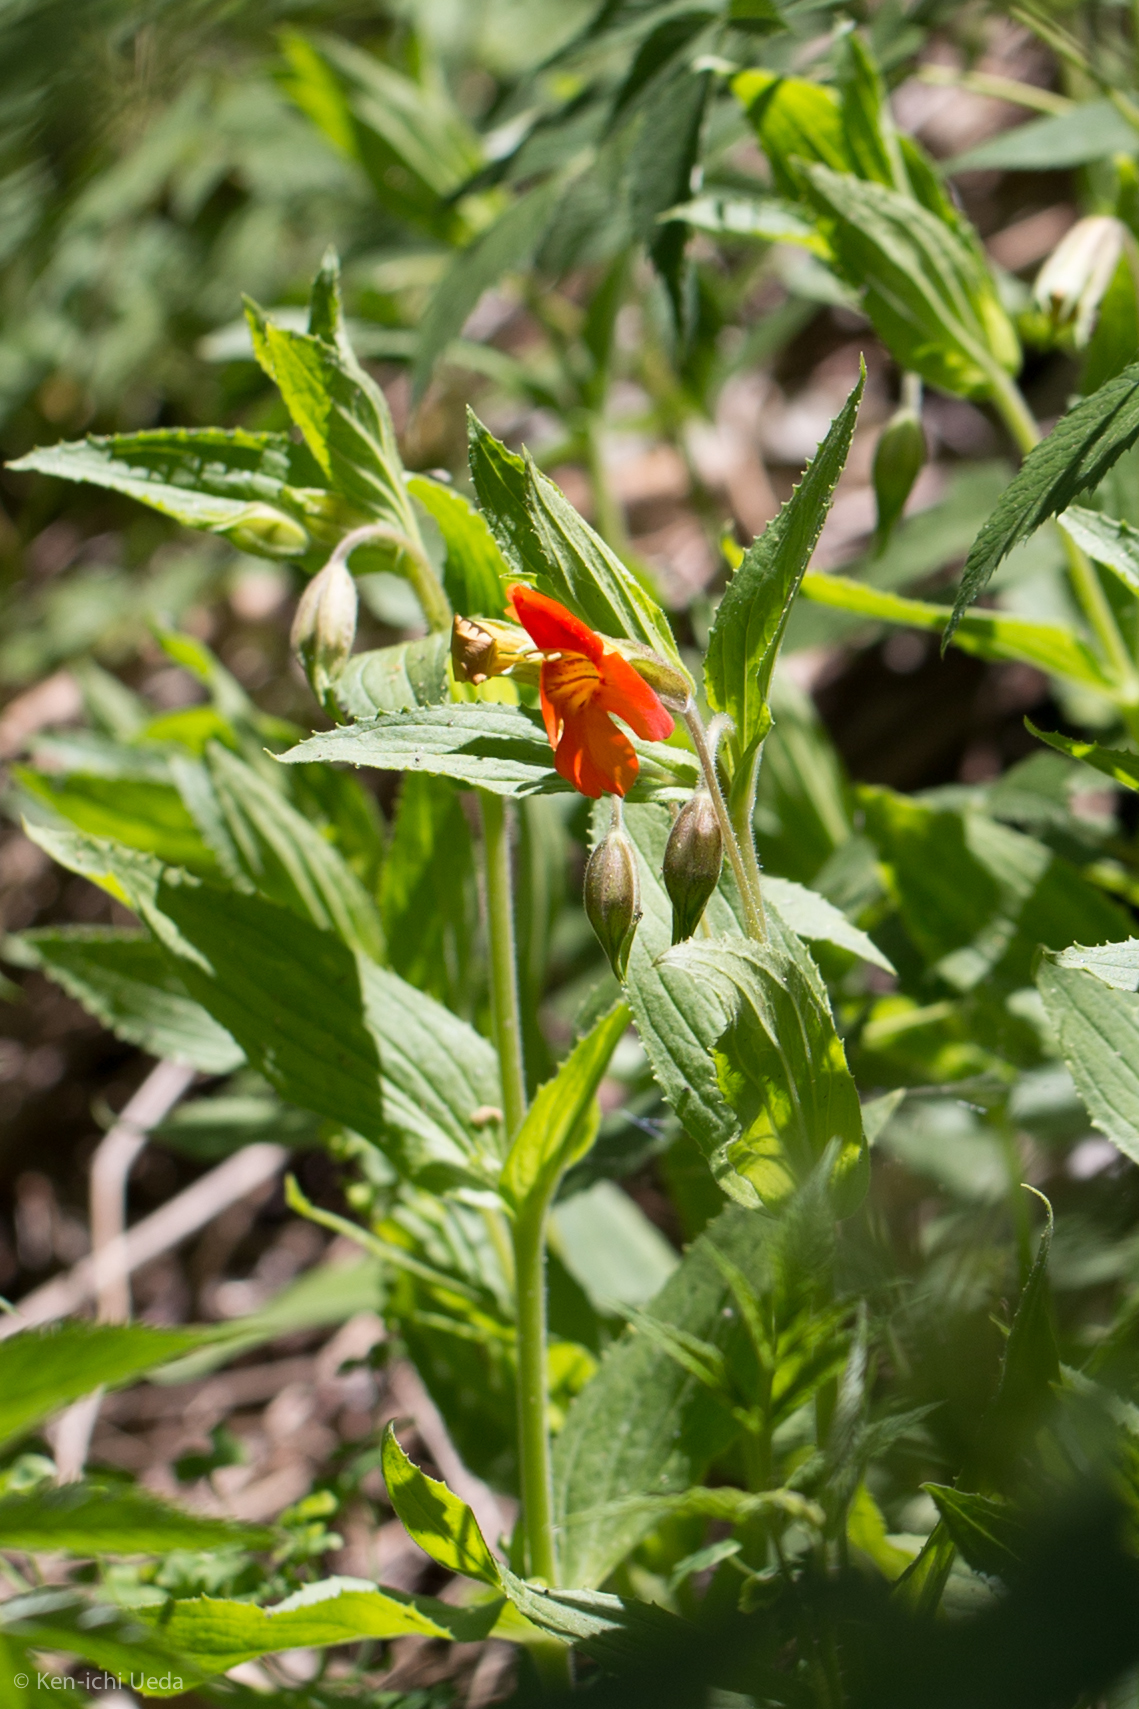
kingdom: Plantae
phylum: Tracheophyta
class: Magnoliopsida
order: Lamiales
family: Phrymaceae
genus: Erythranthe
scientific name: Erythranthe cinnabarina
